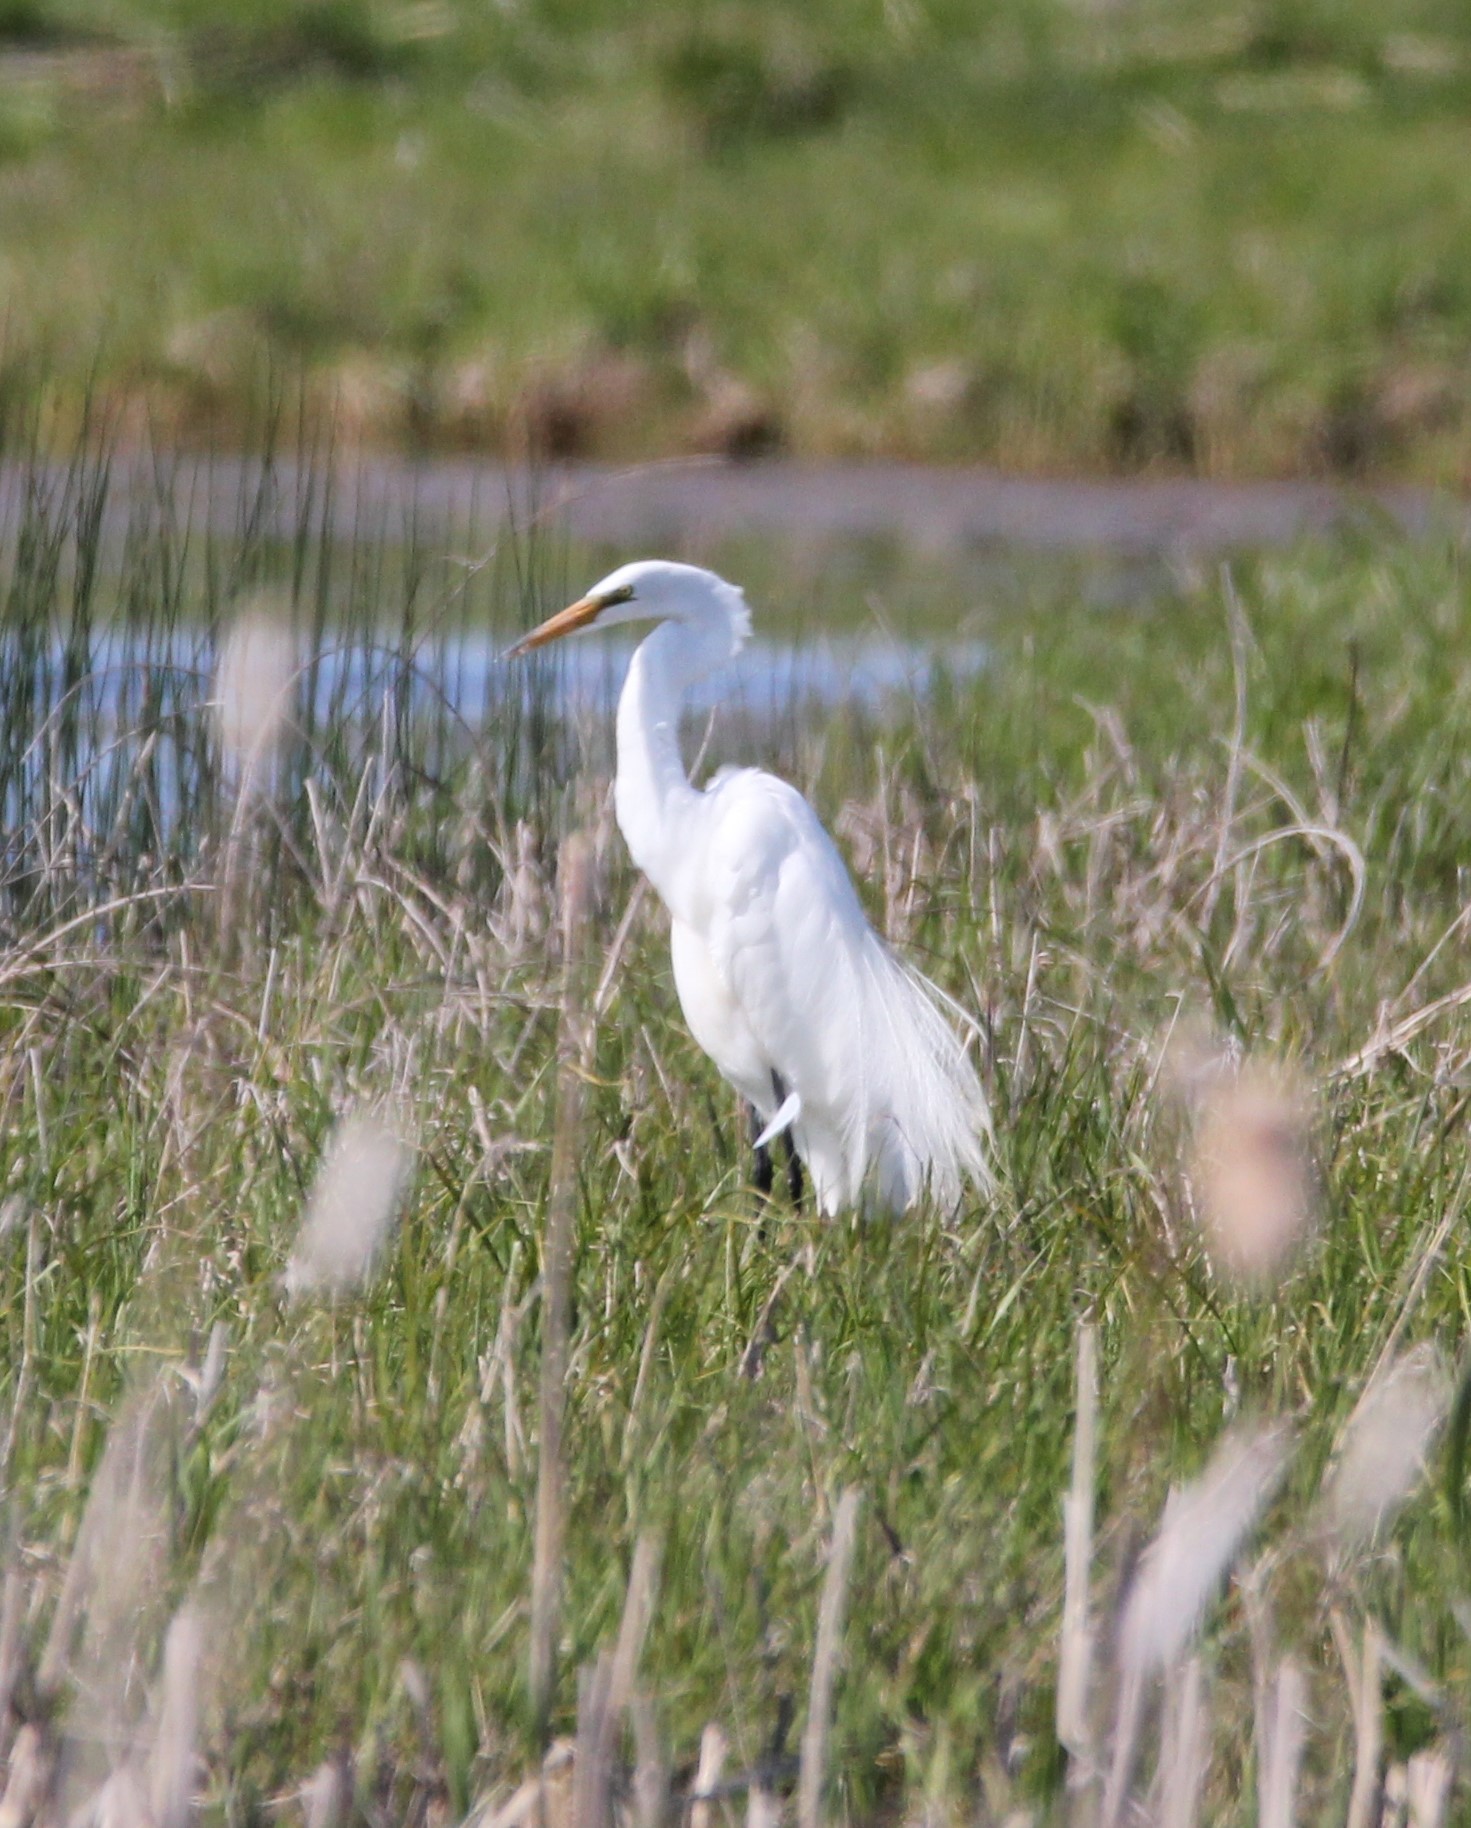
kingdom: Animalia
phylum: Chordata
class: Aves
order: Pelecaniformes
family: Ardeidae
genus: Ardea
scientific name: Ardea alba
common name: Great egret
